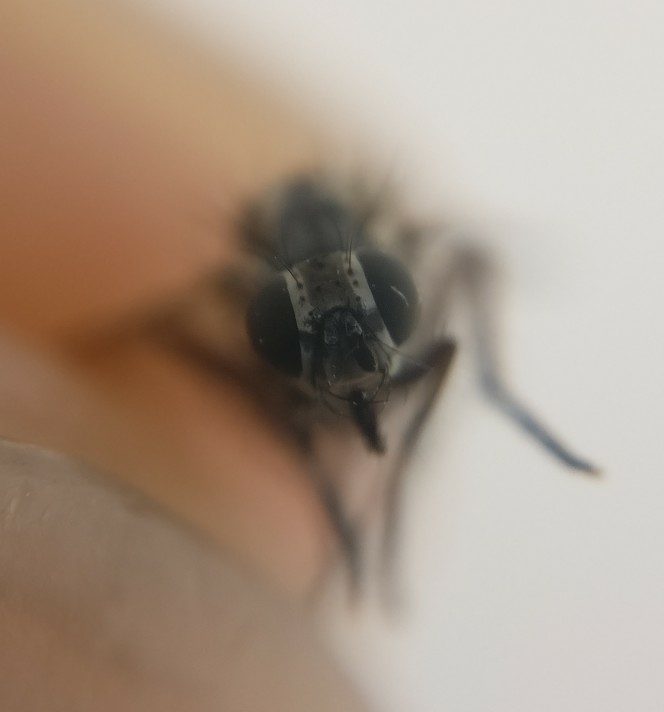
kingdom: Animalia
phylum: Arthropoda
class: Insecta
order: Diptera
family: Anthomyiidae
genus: Anthomyia
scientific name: Anthomyia punctipennis
